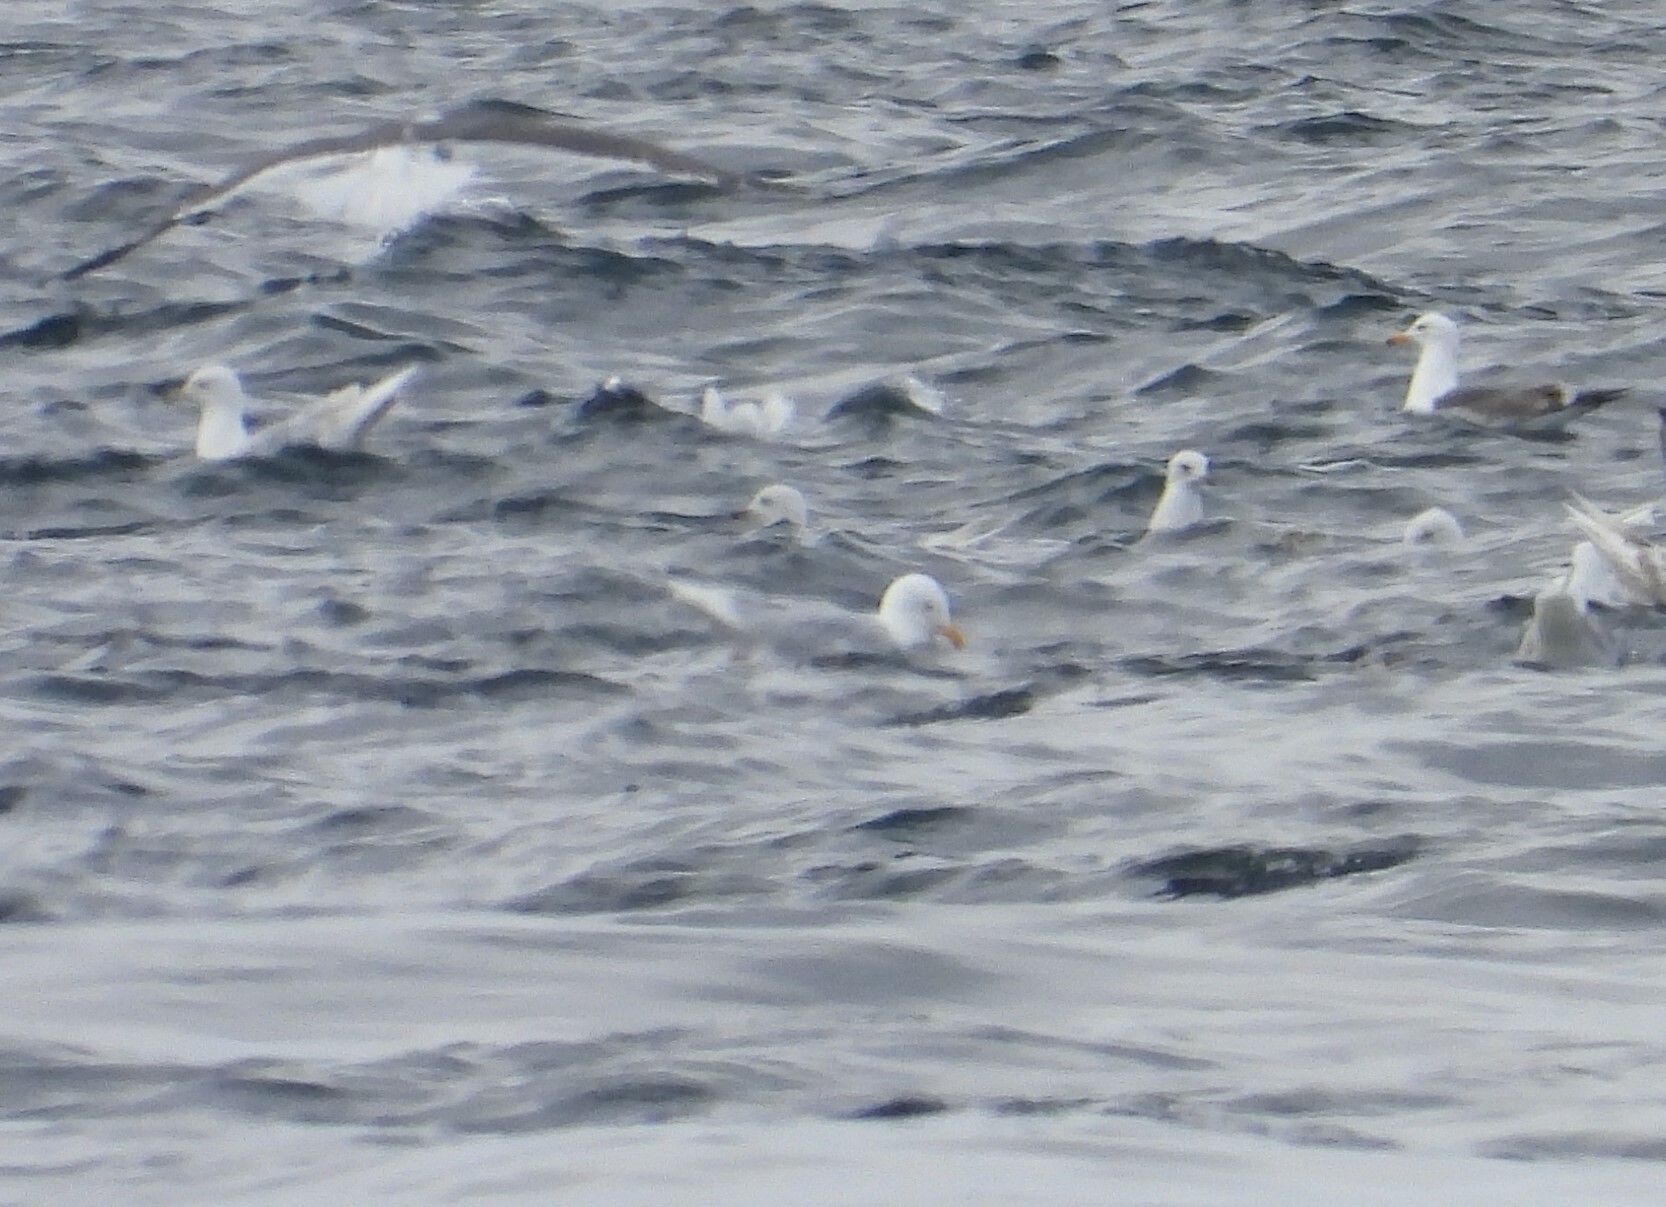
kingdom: Animalia
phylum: Chordata
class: Aves
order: Charadriiformes
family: Laridae
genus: Larus
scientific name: Larus glaucoides
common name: Iceland gull
